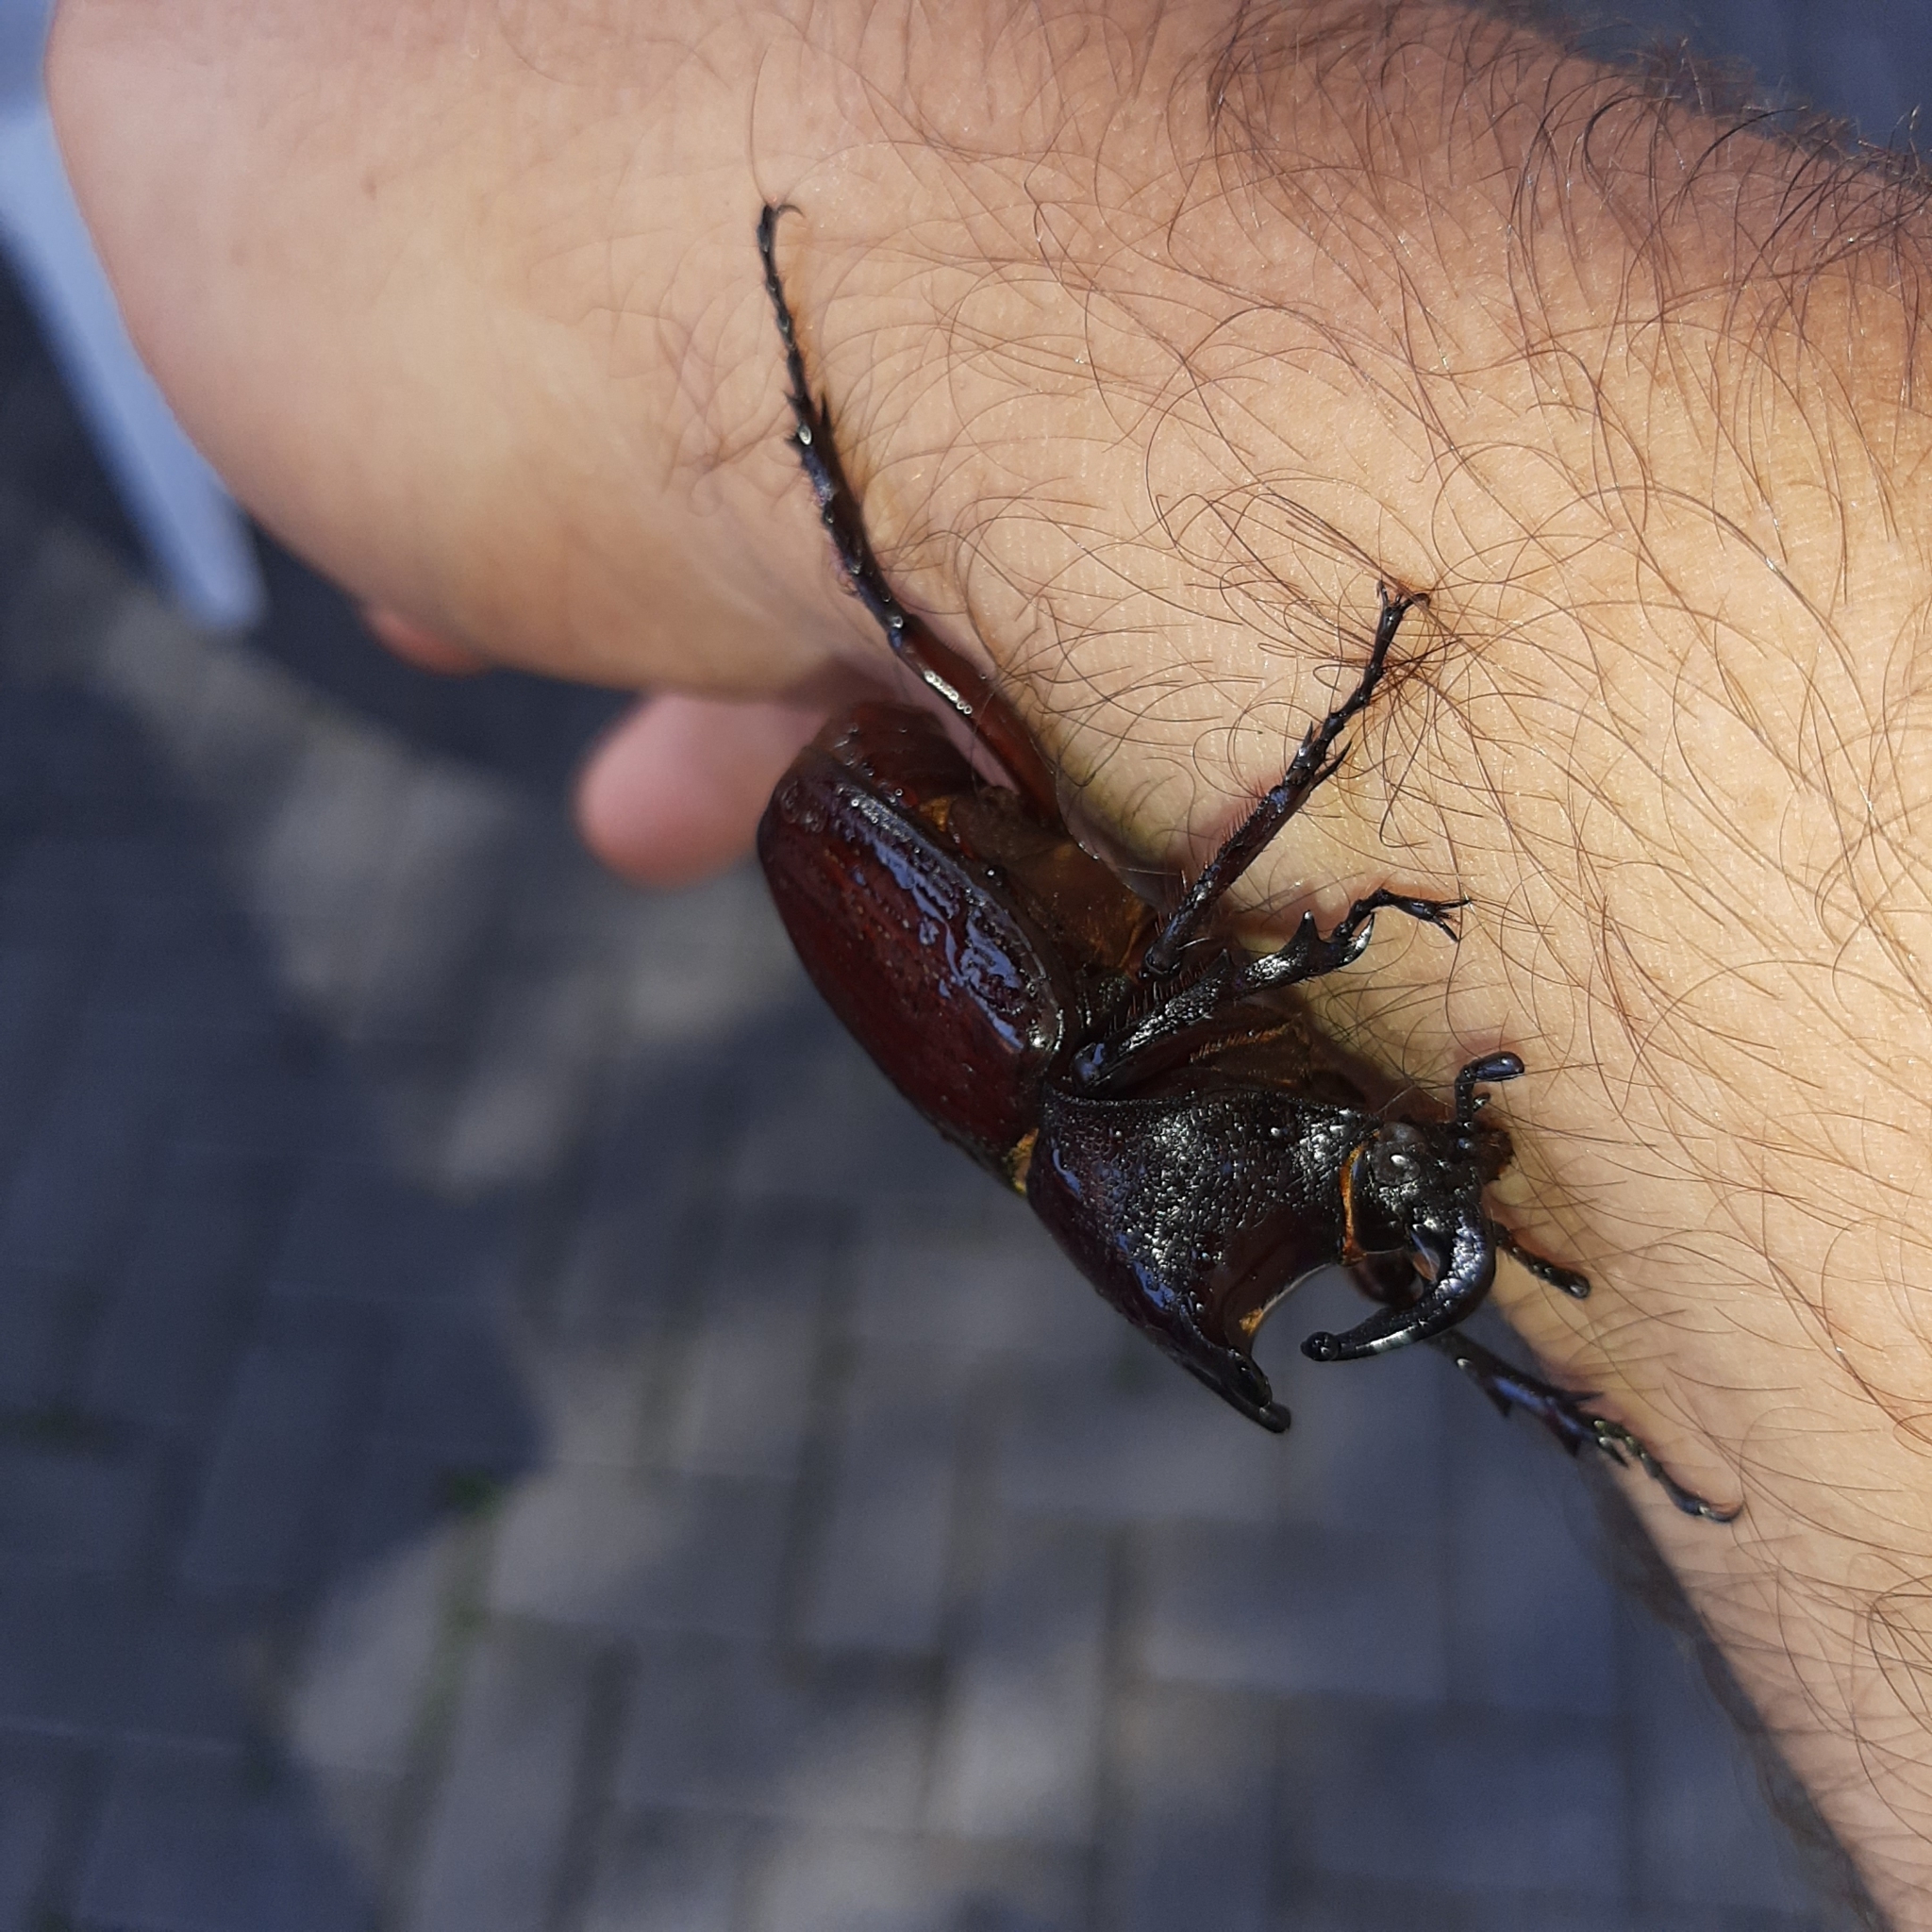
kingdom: Animalia
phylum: Arthropoda
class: Insecta
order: Coleoptera
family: Scarabaeidae
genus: Coelosis
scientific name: Coelosis biloba
